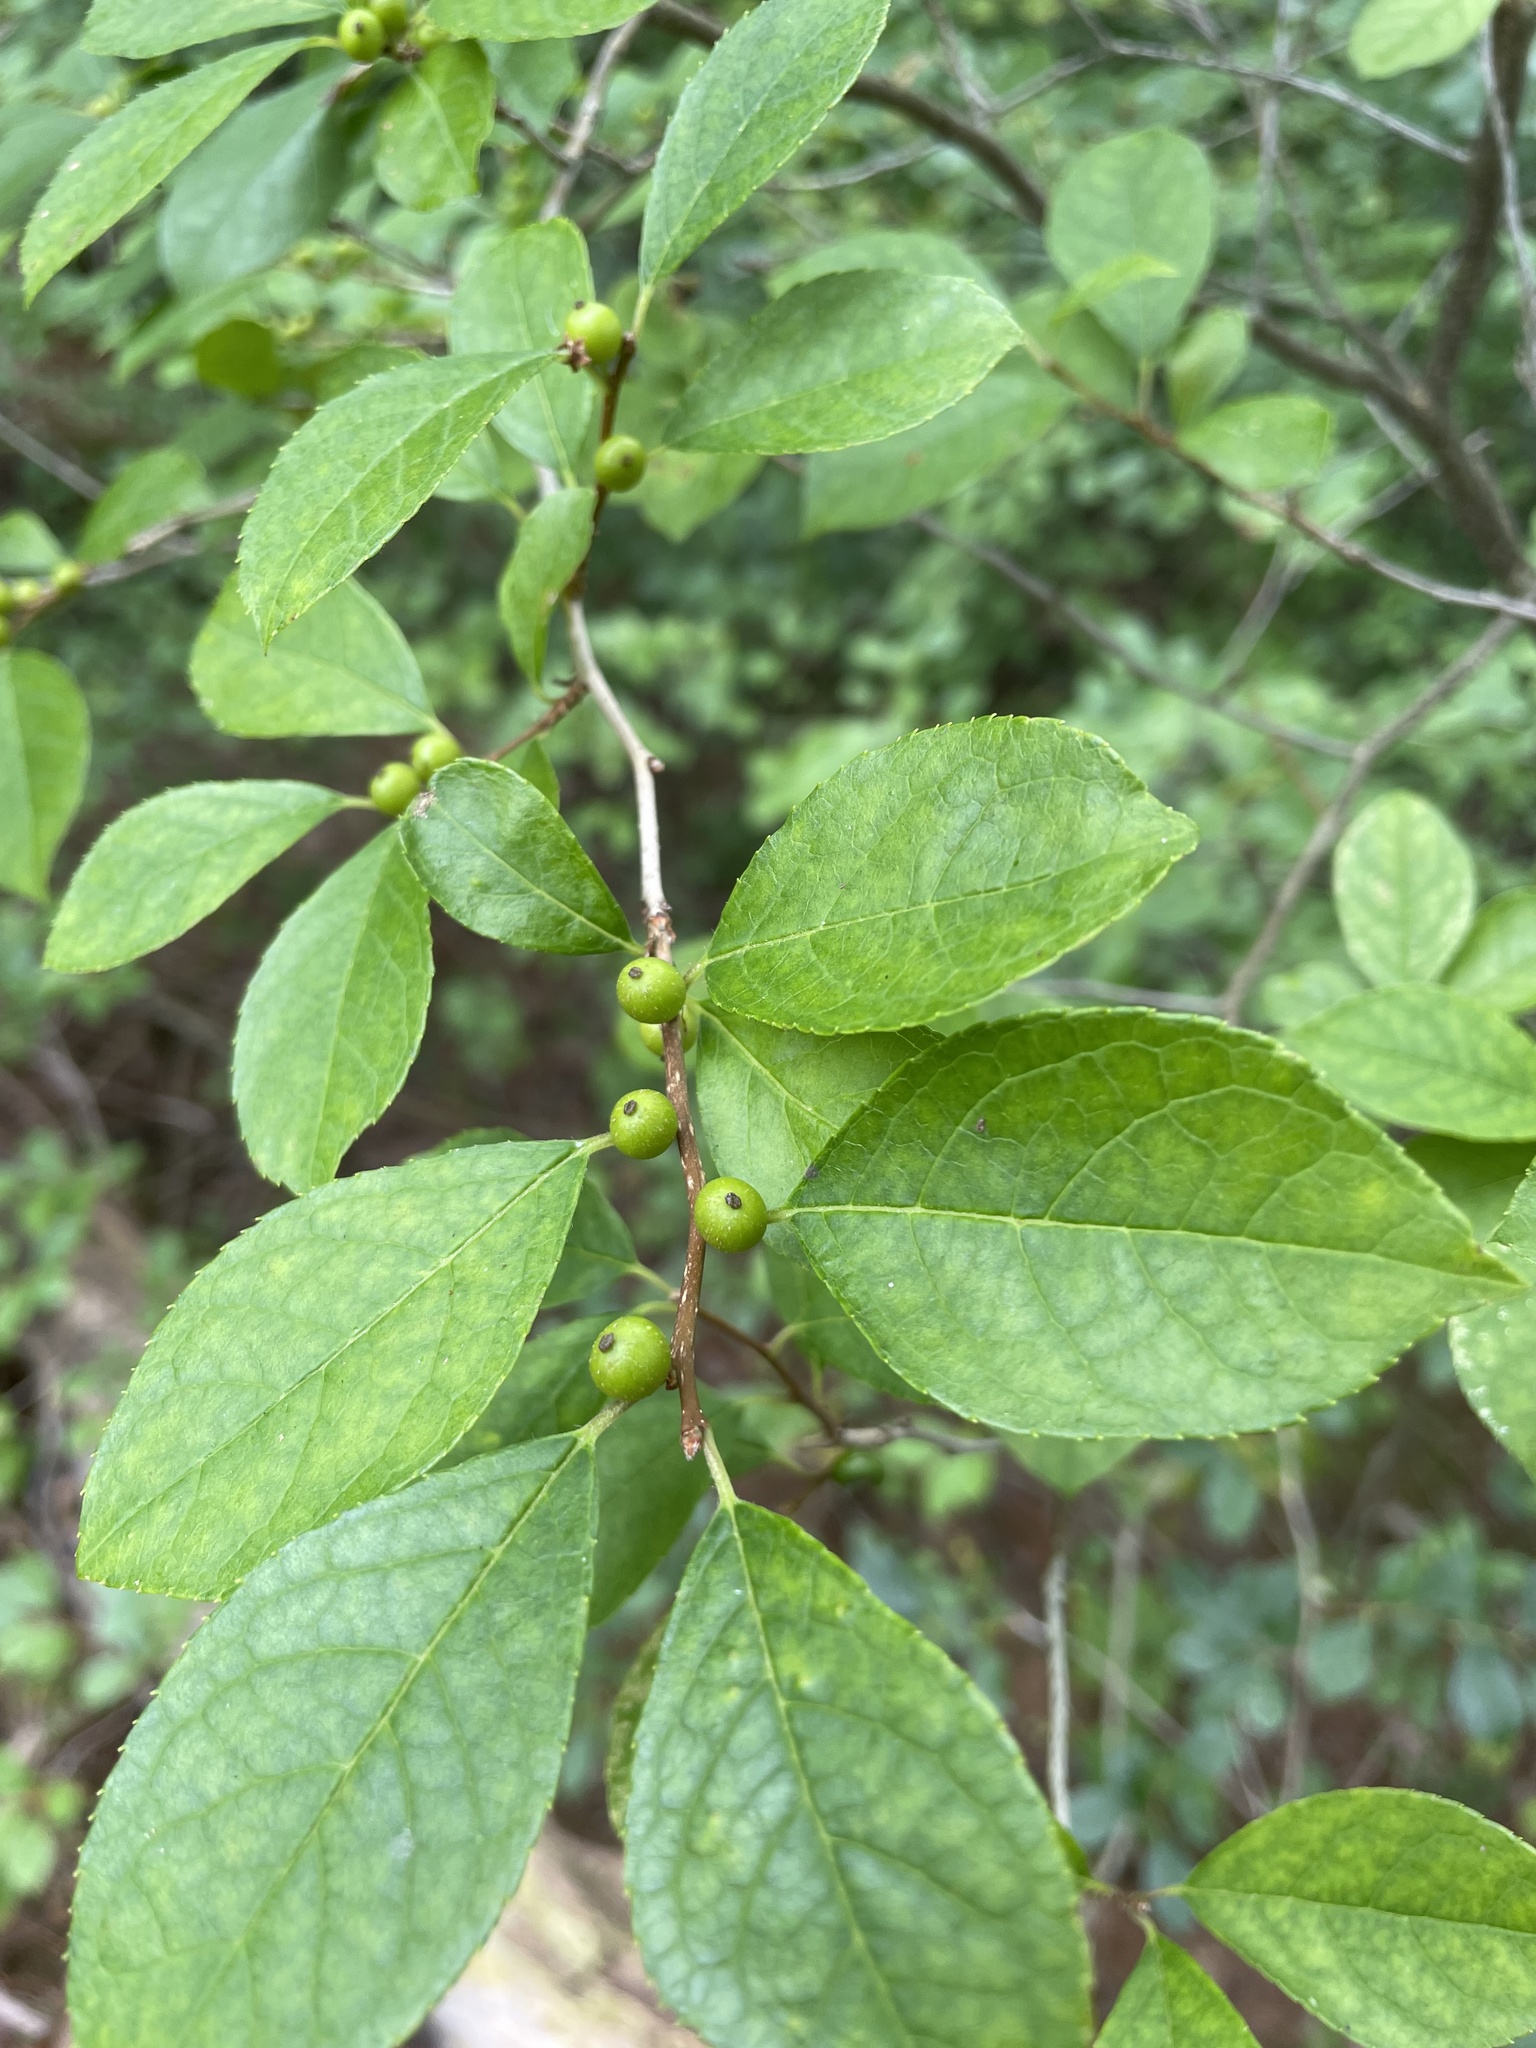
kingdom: Plantae
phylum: Tracheophyta
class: Magnoliopsida
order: Aquifoliales
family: Aquifoliaceae
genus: Ilex
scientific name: Ilex verticillata
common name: Virginia winterberry
